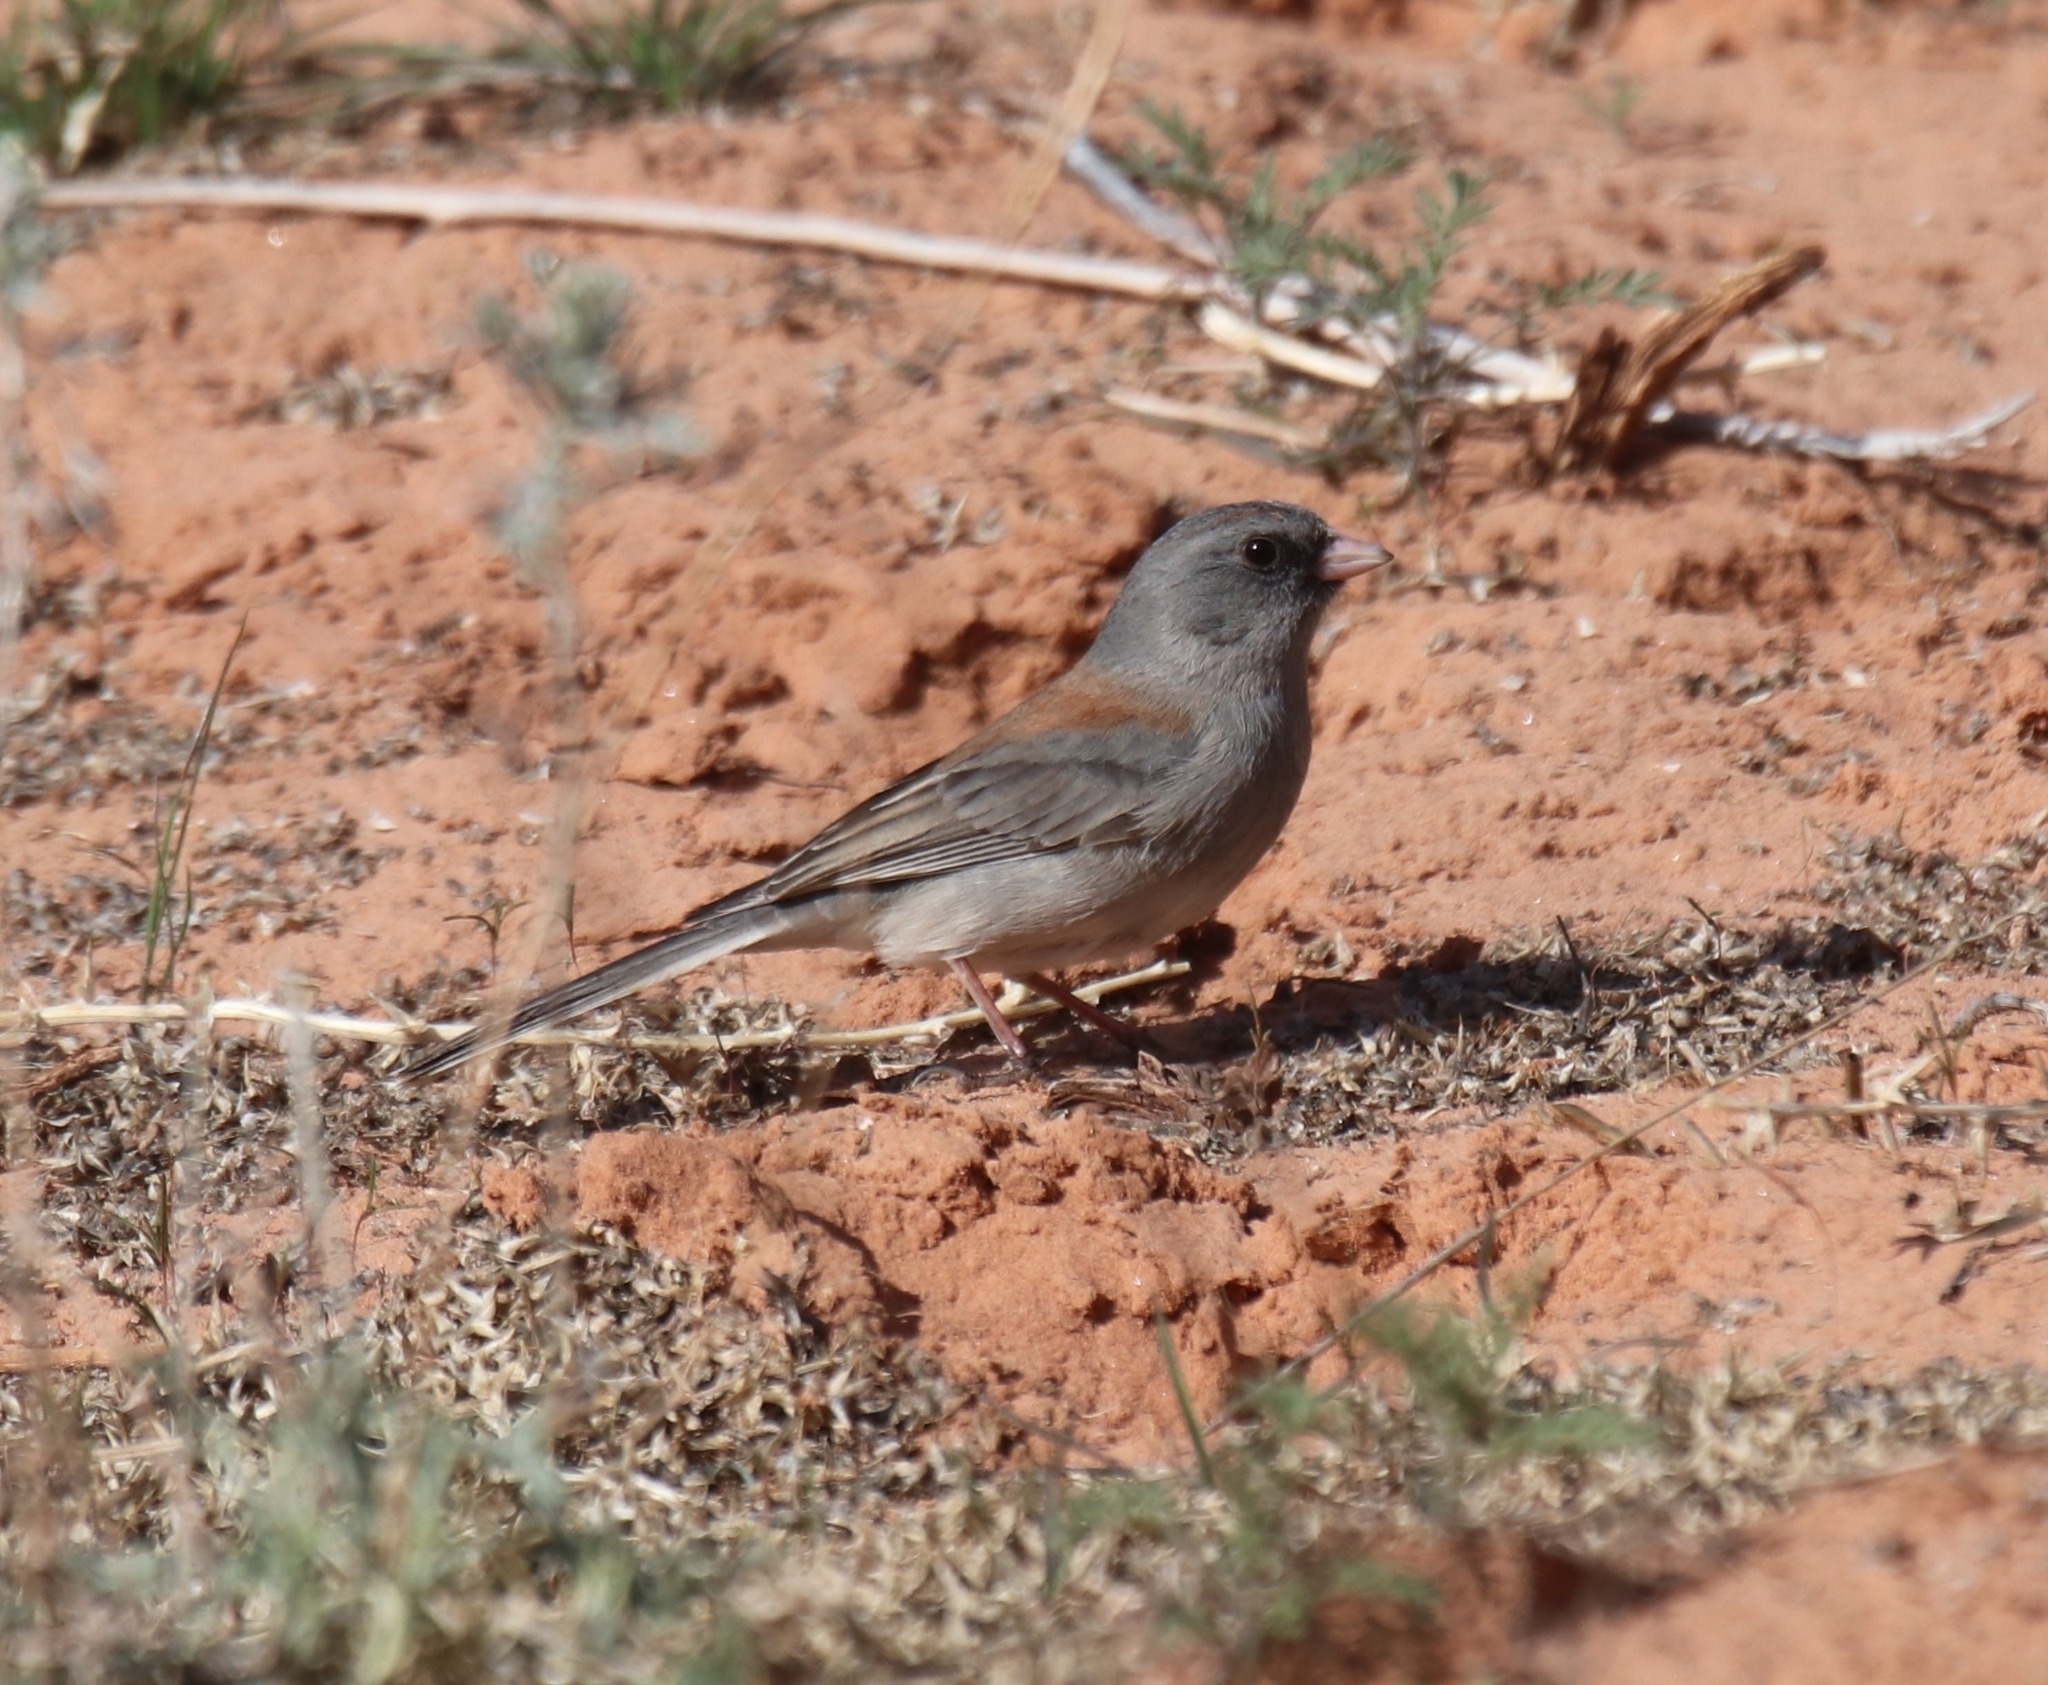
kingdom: Animalia
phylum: Chordata
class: Aves
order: Passeriformes
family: Passerellidae
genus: Junco
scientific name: Junco hyemalis
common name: Dark-eyed junco
